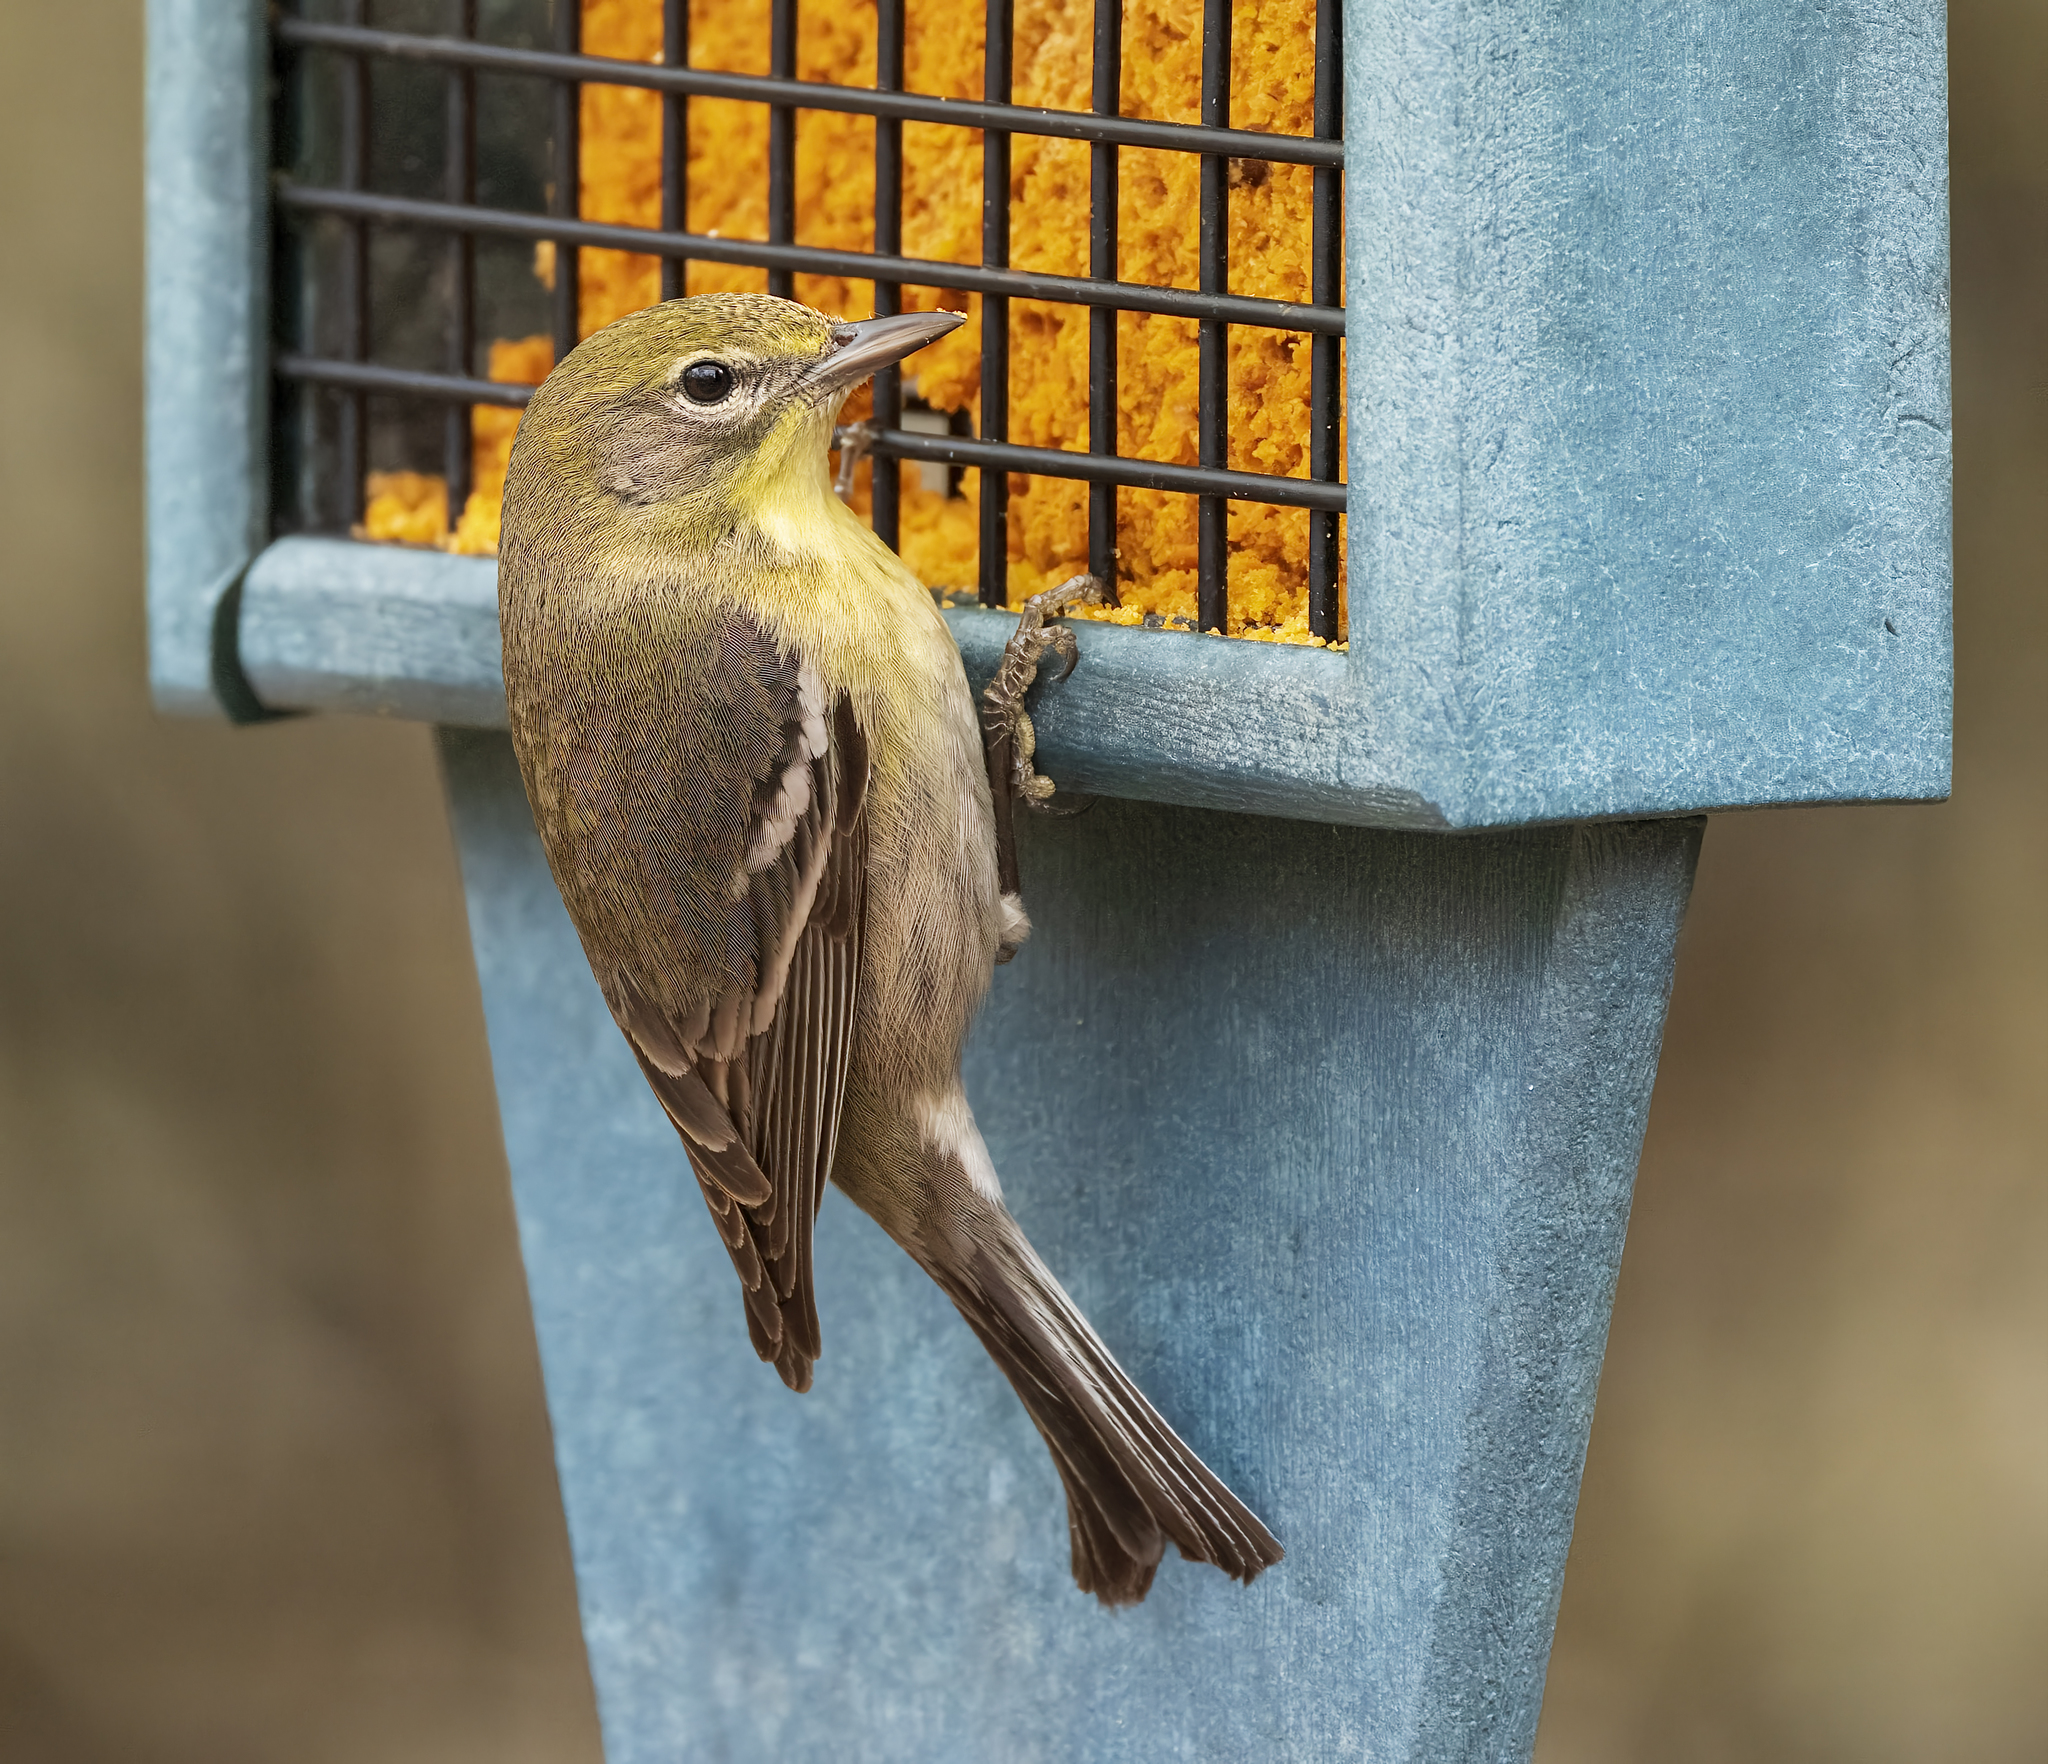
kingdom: Animalia
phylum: Chordata
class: Aves
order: Passeriformes
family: Parulidae
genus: Setophaga
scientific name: Setophaga pinus
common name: Pine warbler
